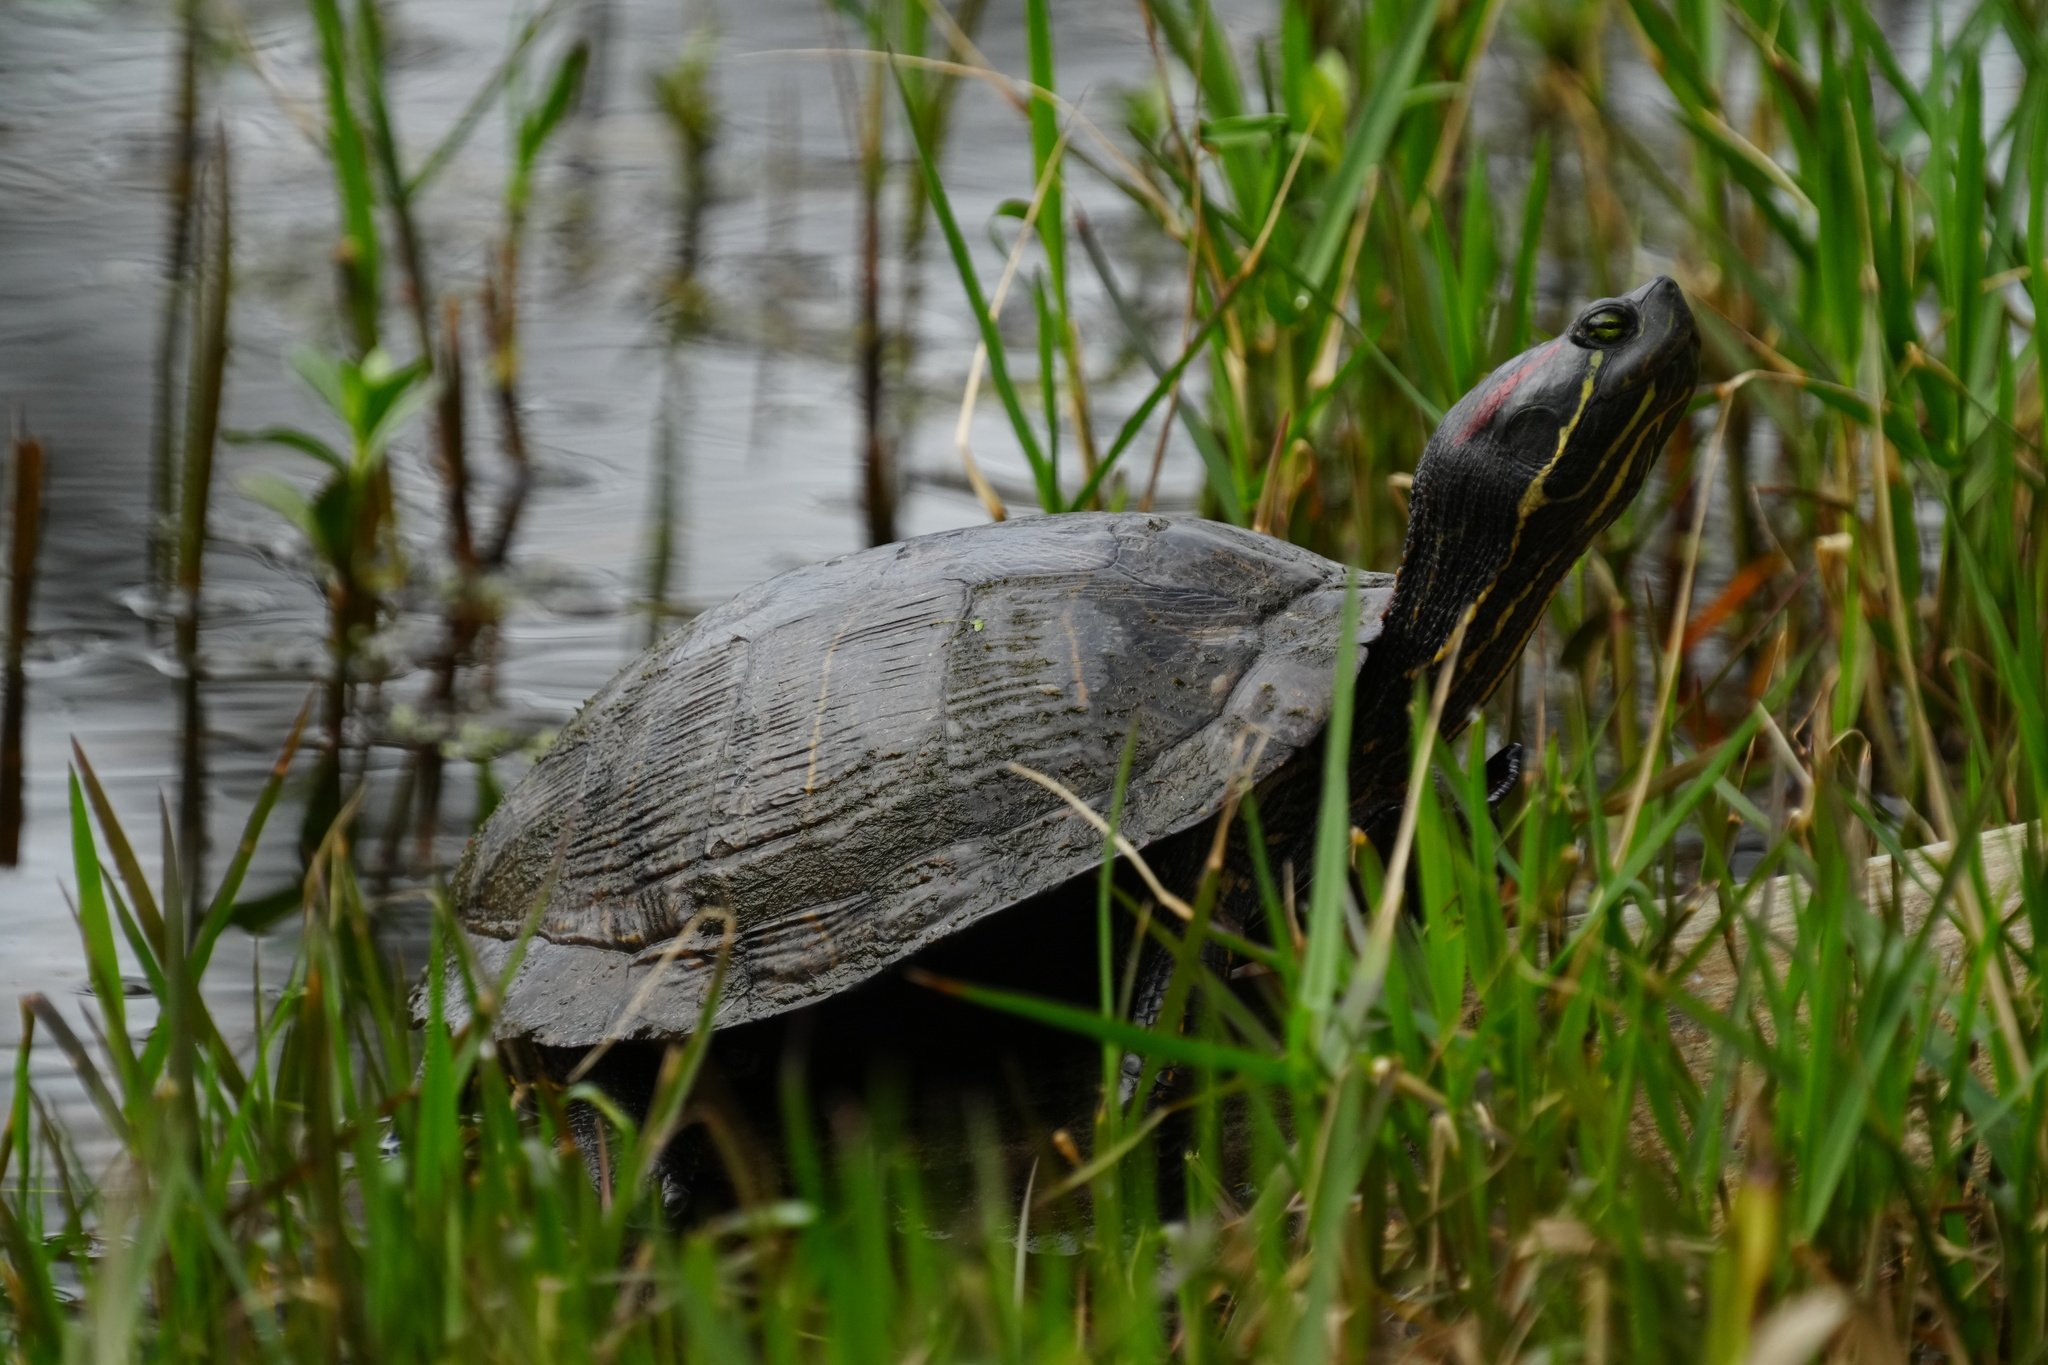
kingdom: Animalia
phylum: Chordata
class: Testudines
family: Emydidae
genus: Trachemys
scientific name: Trachemys scripta
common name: Slider
